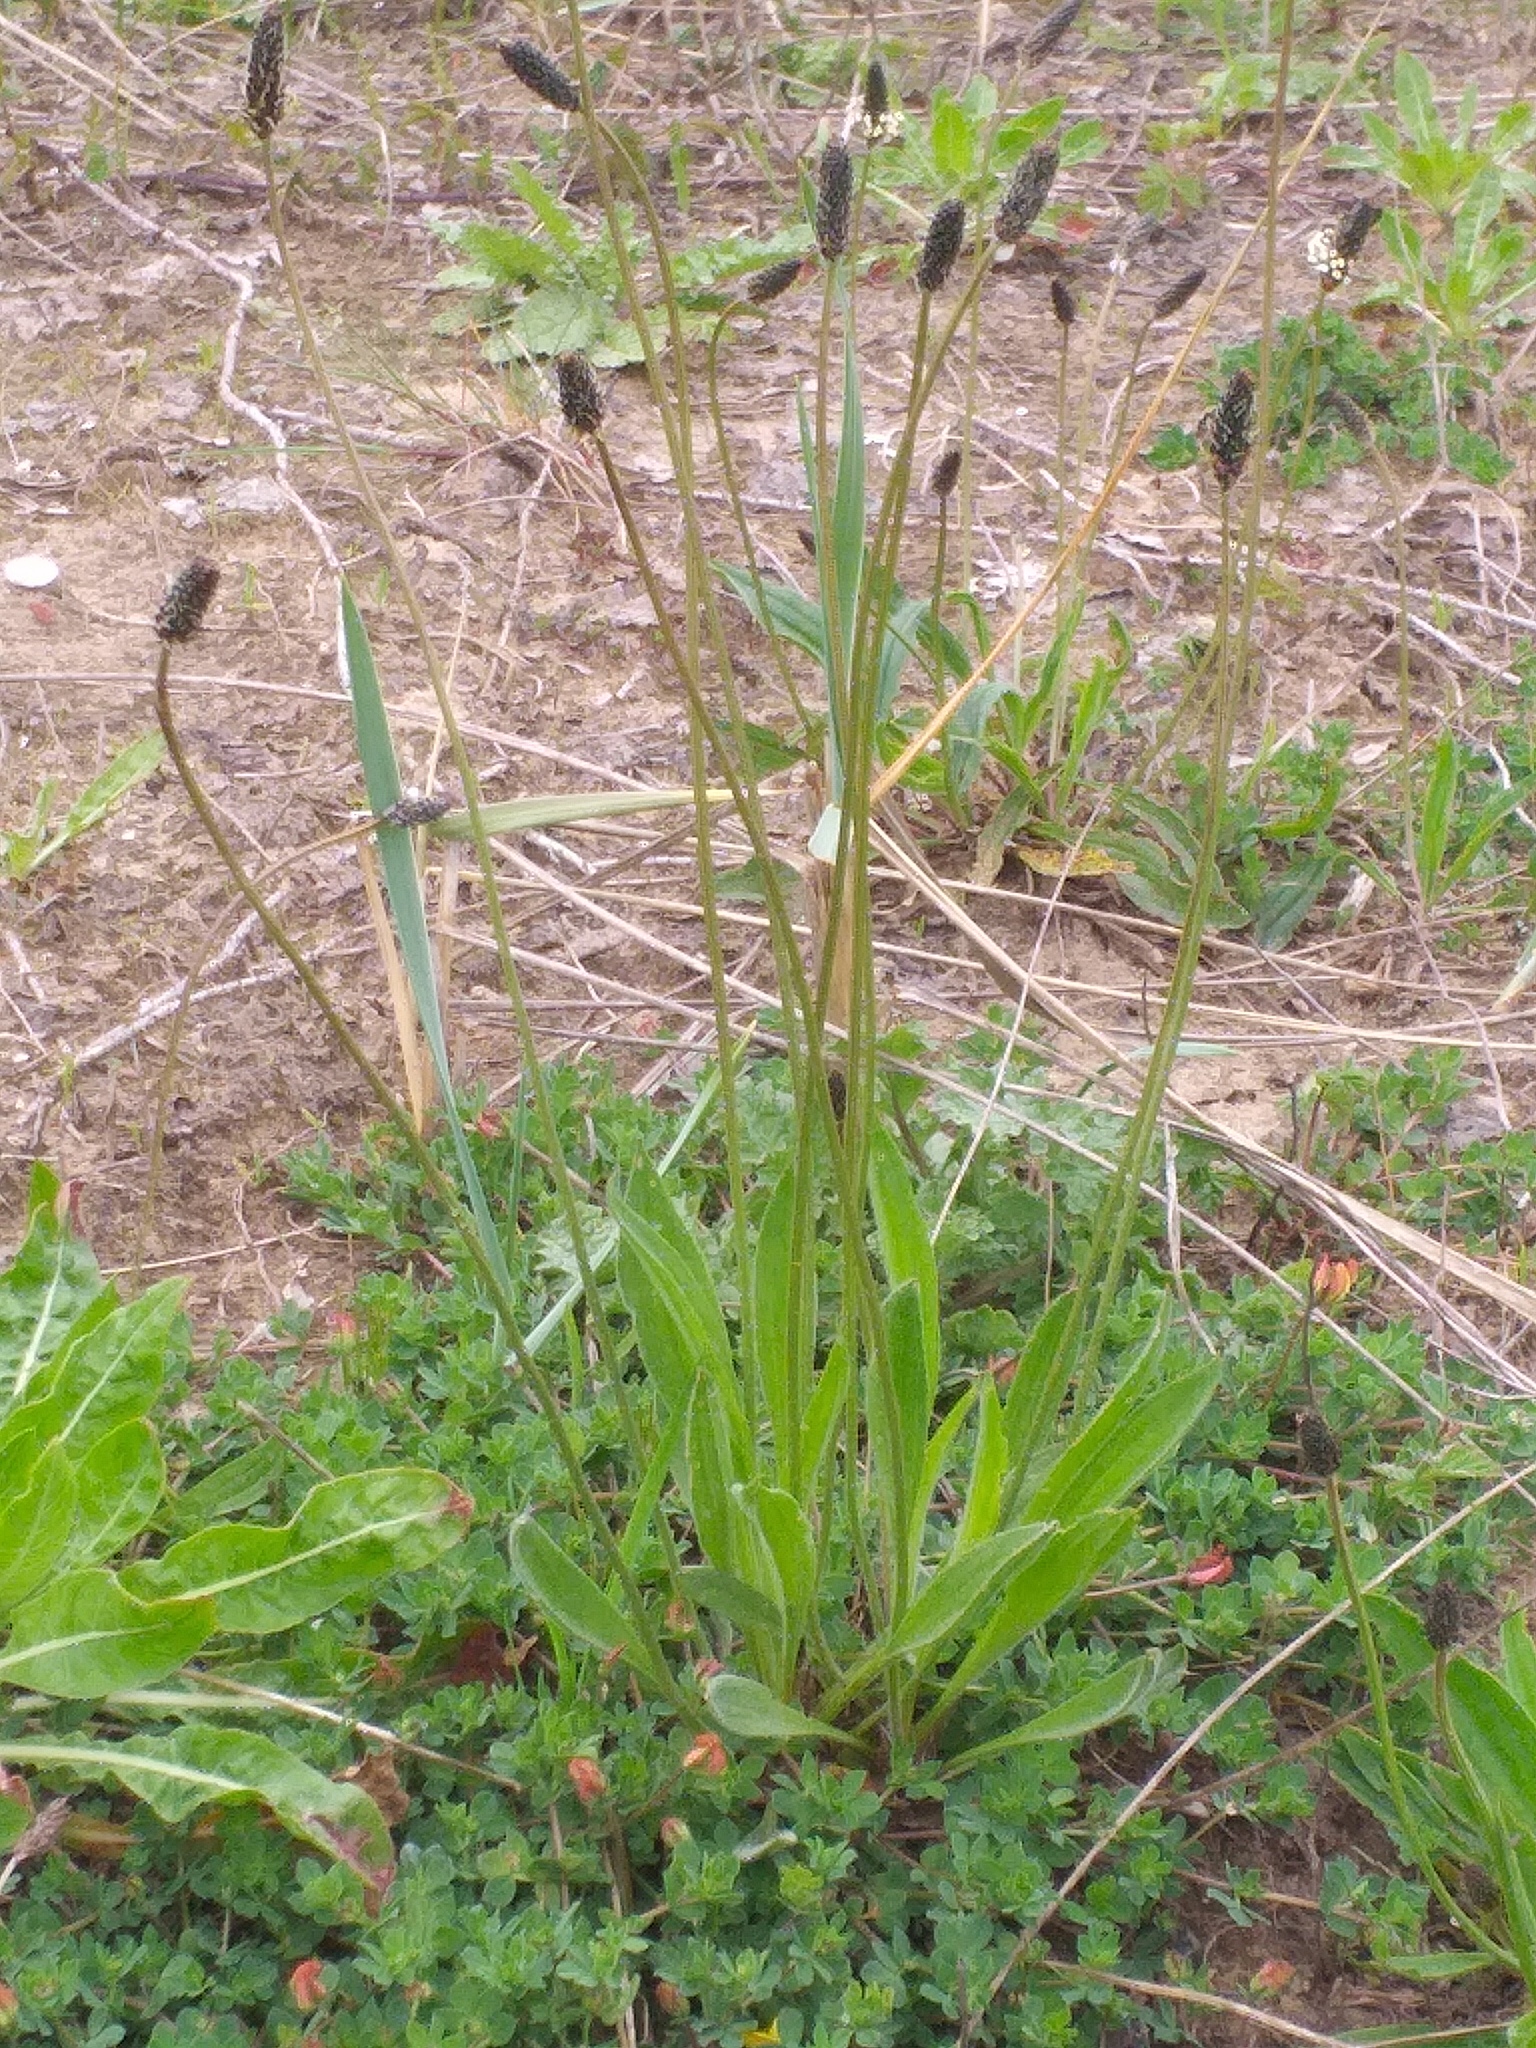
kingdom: Plantae
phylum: Tracheophyta
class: Magnoliopsida
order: Lamiales
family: Plantaginaceae
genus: Plantago
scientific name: Plantago lanceolata
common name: Ribwort plantain
